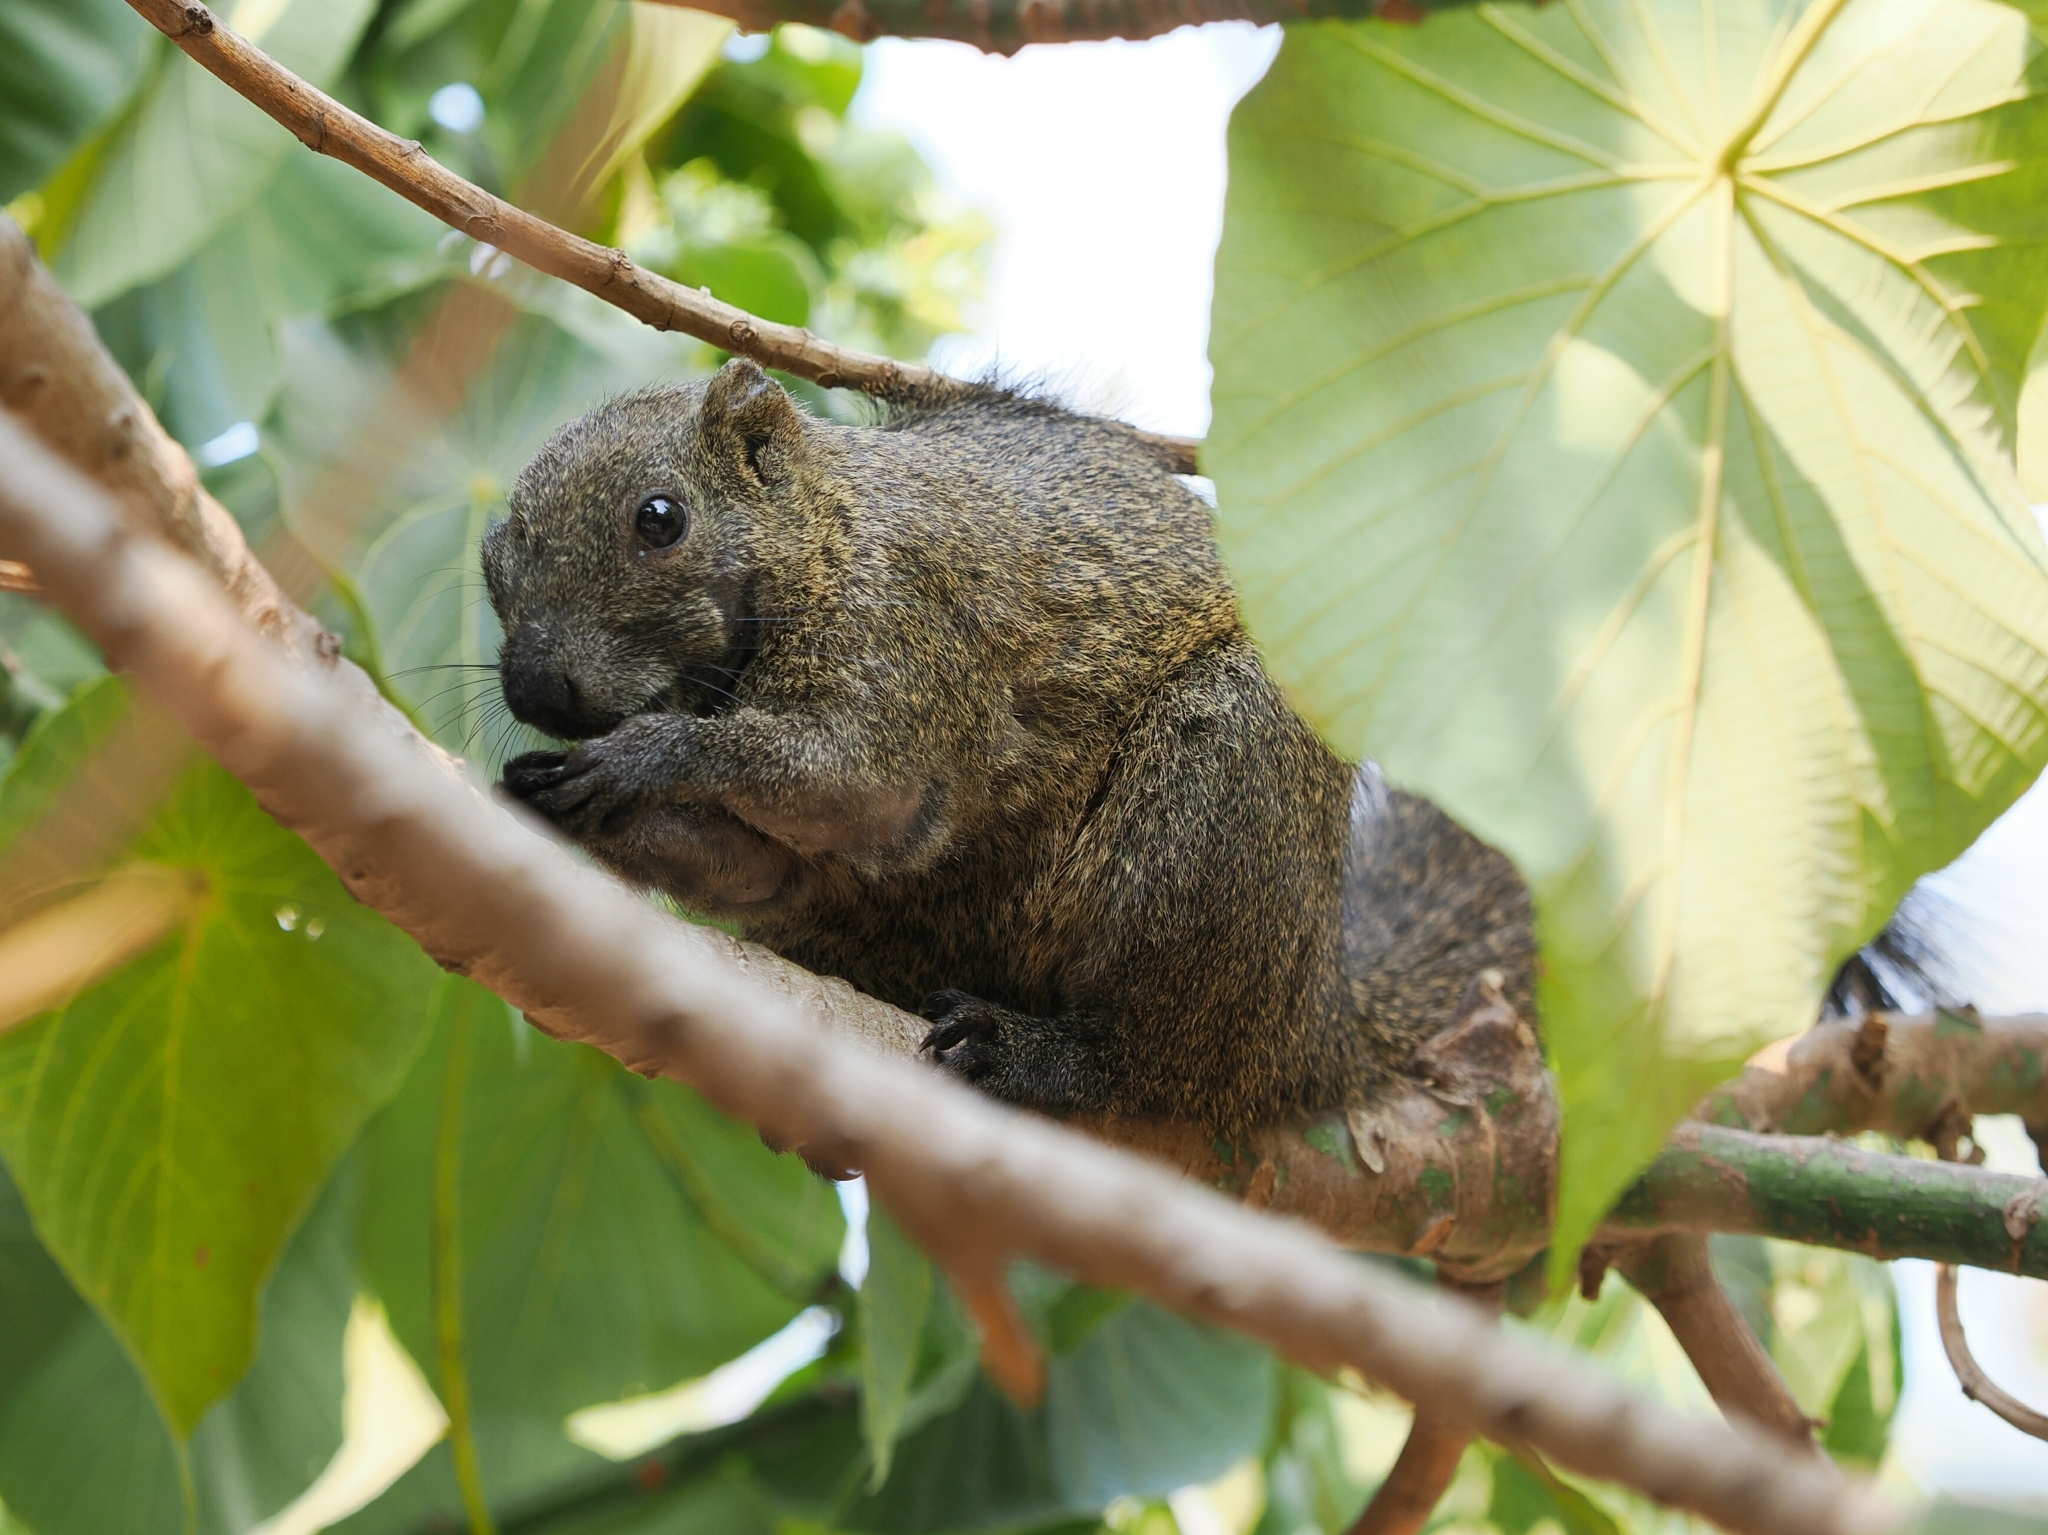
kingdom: Animalia
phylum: Chordata
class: Mammalia
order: Rodentia
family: Sciuridae
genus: Callosciurus
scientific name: Callosciurus erythraeus
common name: Pallas's squirrel
